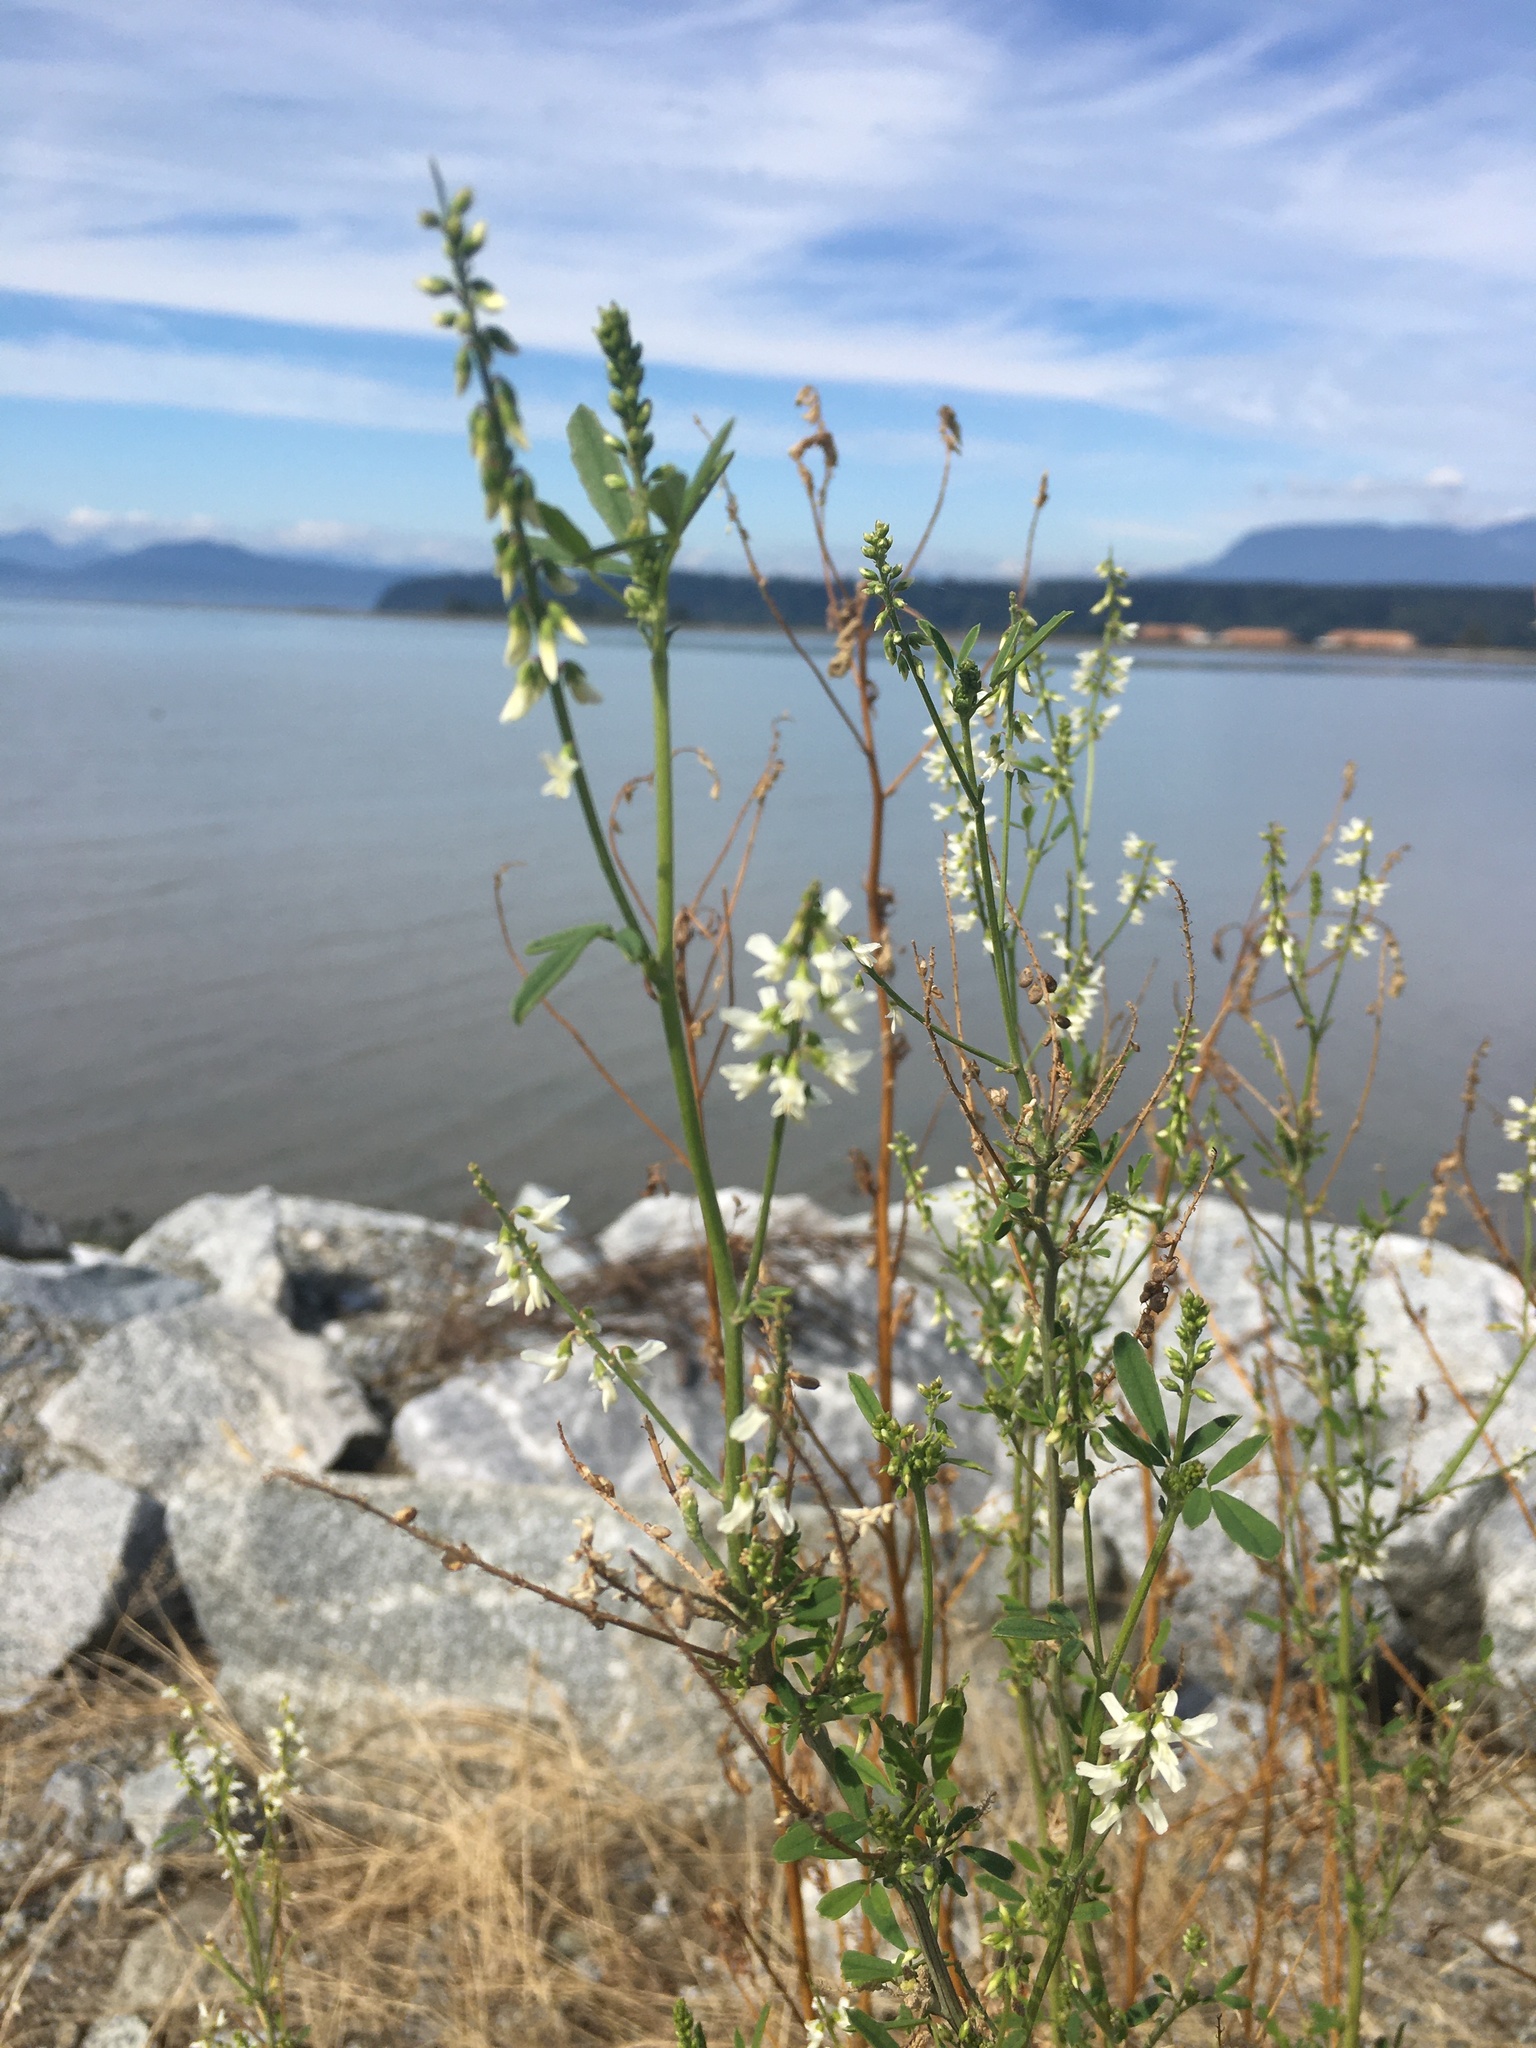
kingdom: Plantae
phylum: Tracheophyta
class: Magnoliopsida
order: Fabales
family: Fabaceae
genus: Melilotus
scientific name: Melilotus albus
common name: White melilot
